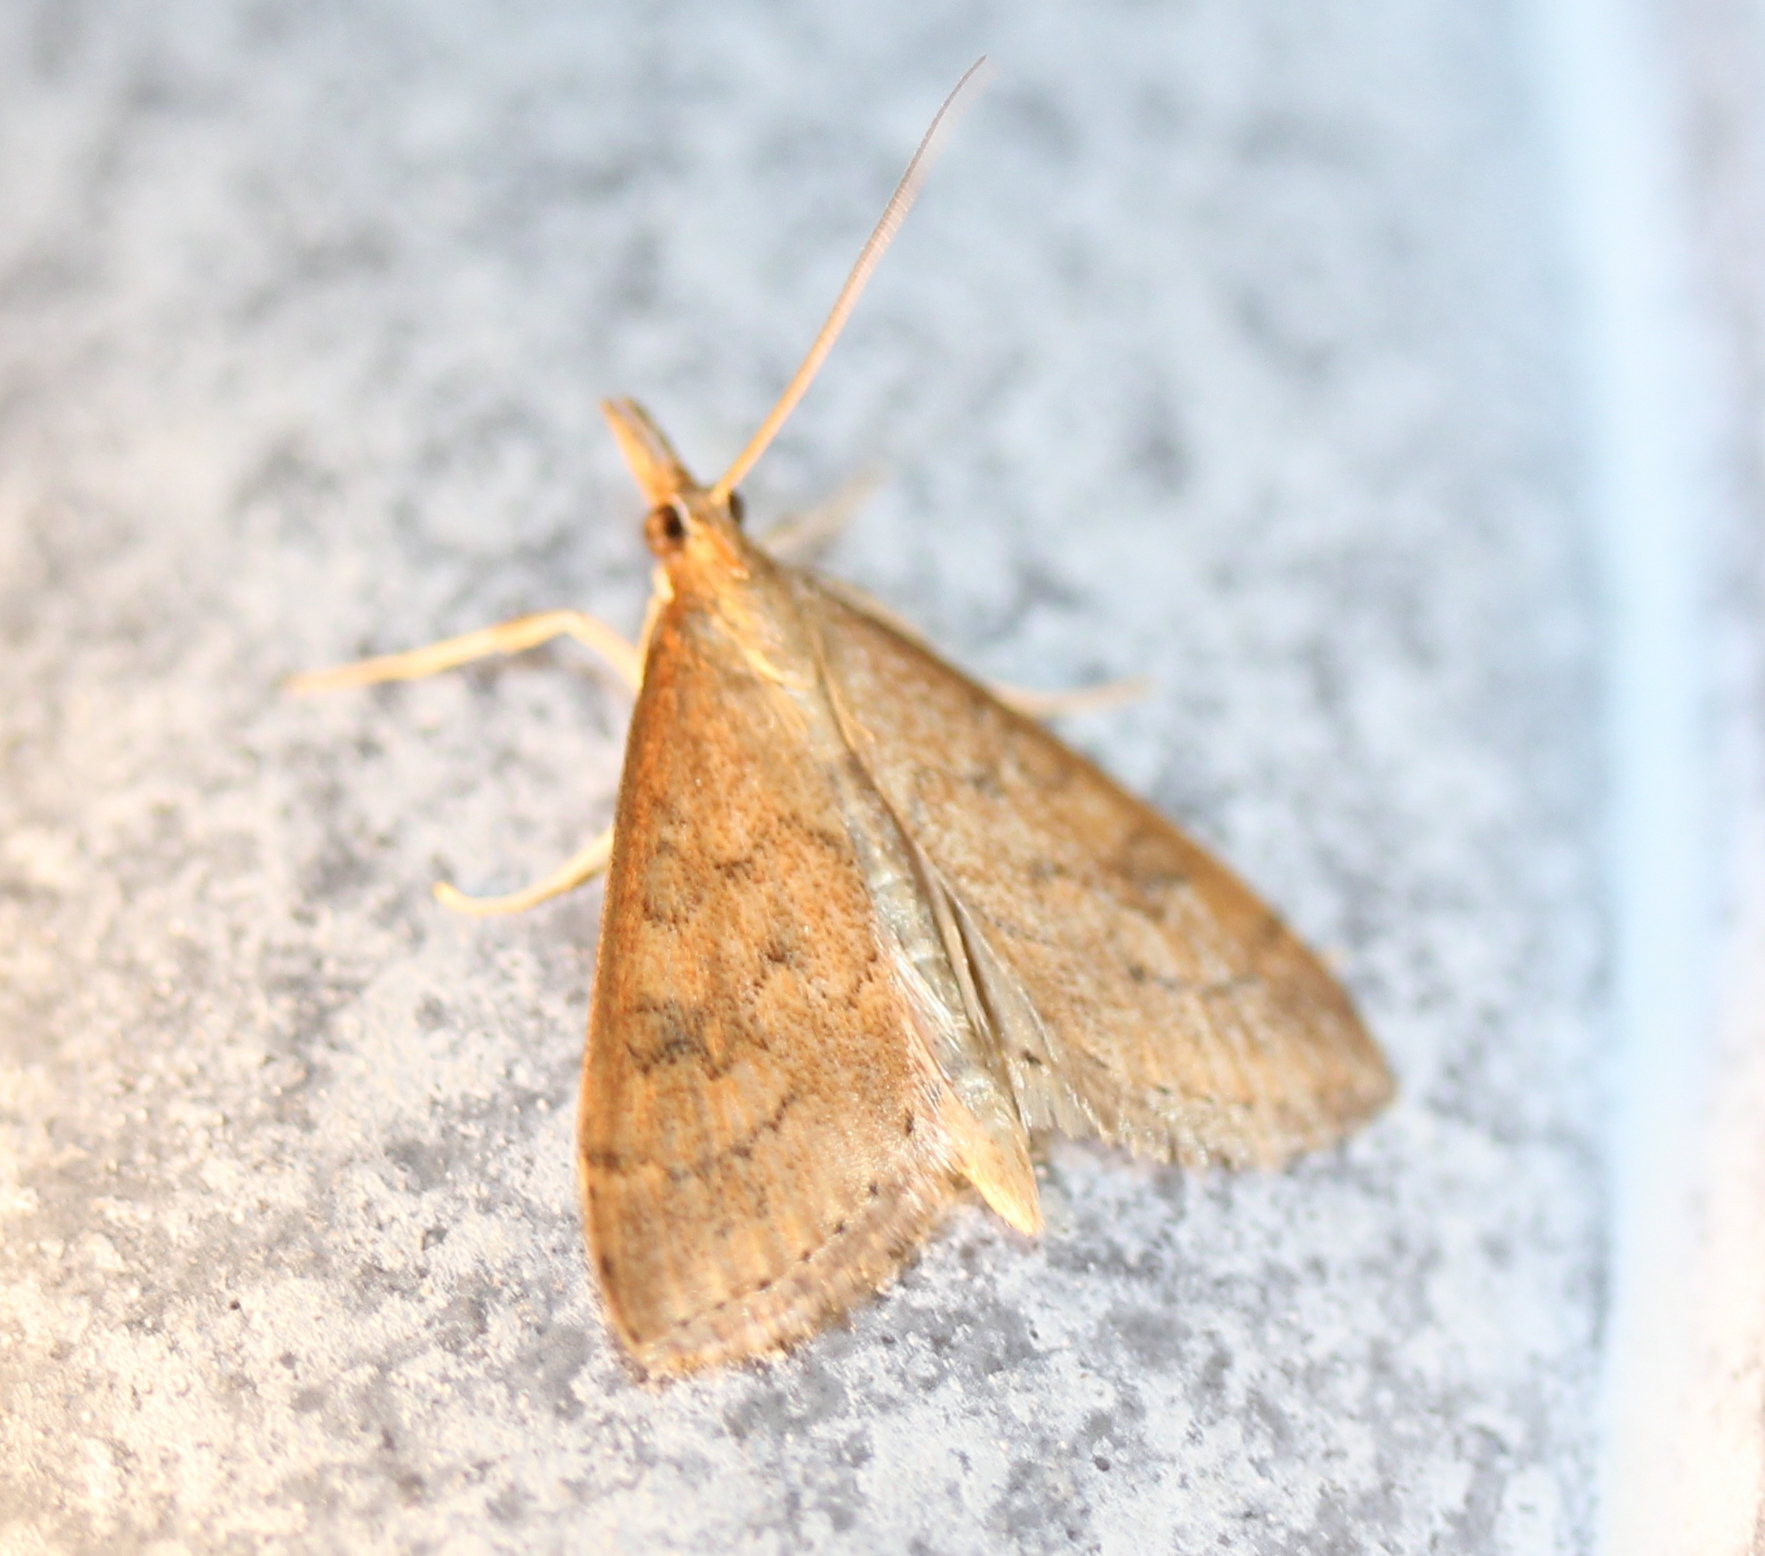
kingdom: Animalia
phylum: Arthropoda
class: Insecta
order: Lepidoptera
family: Crambidae
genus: Udea
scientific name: Udea rubigalis
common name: Celery leaftier moth
